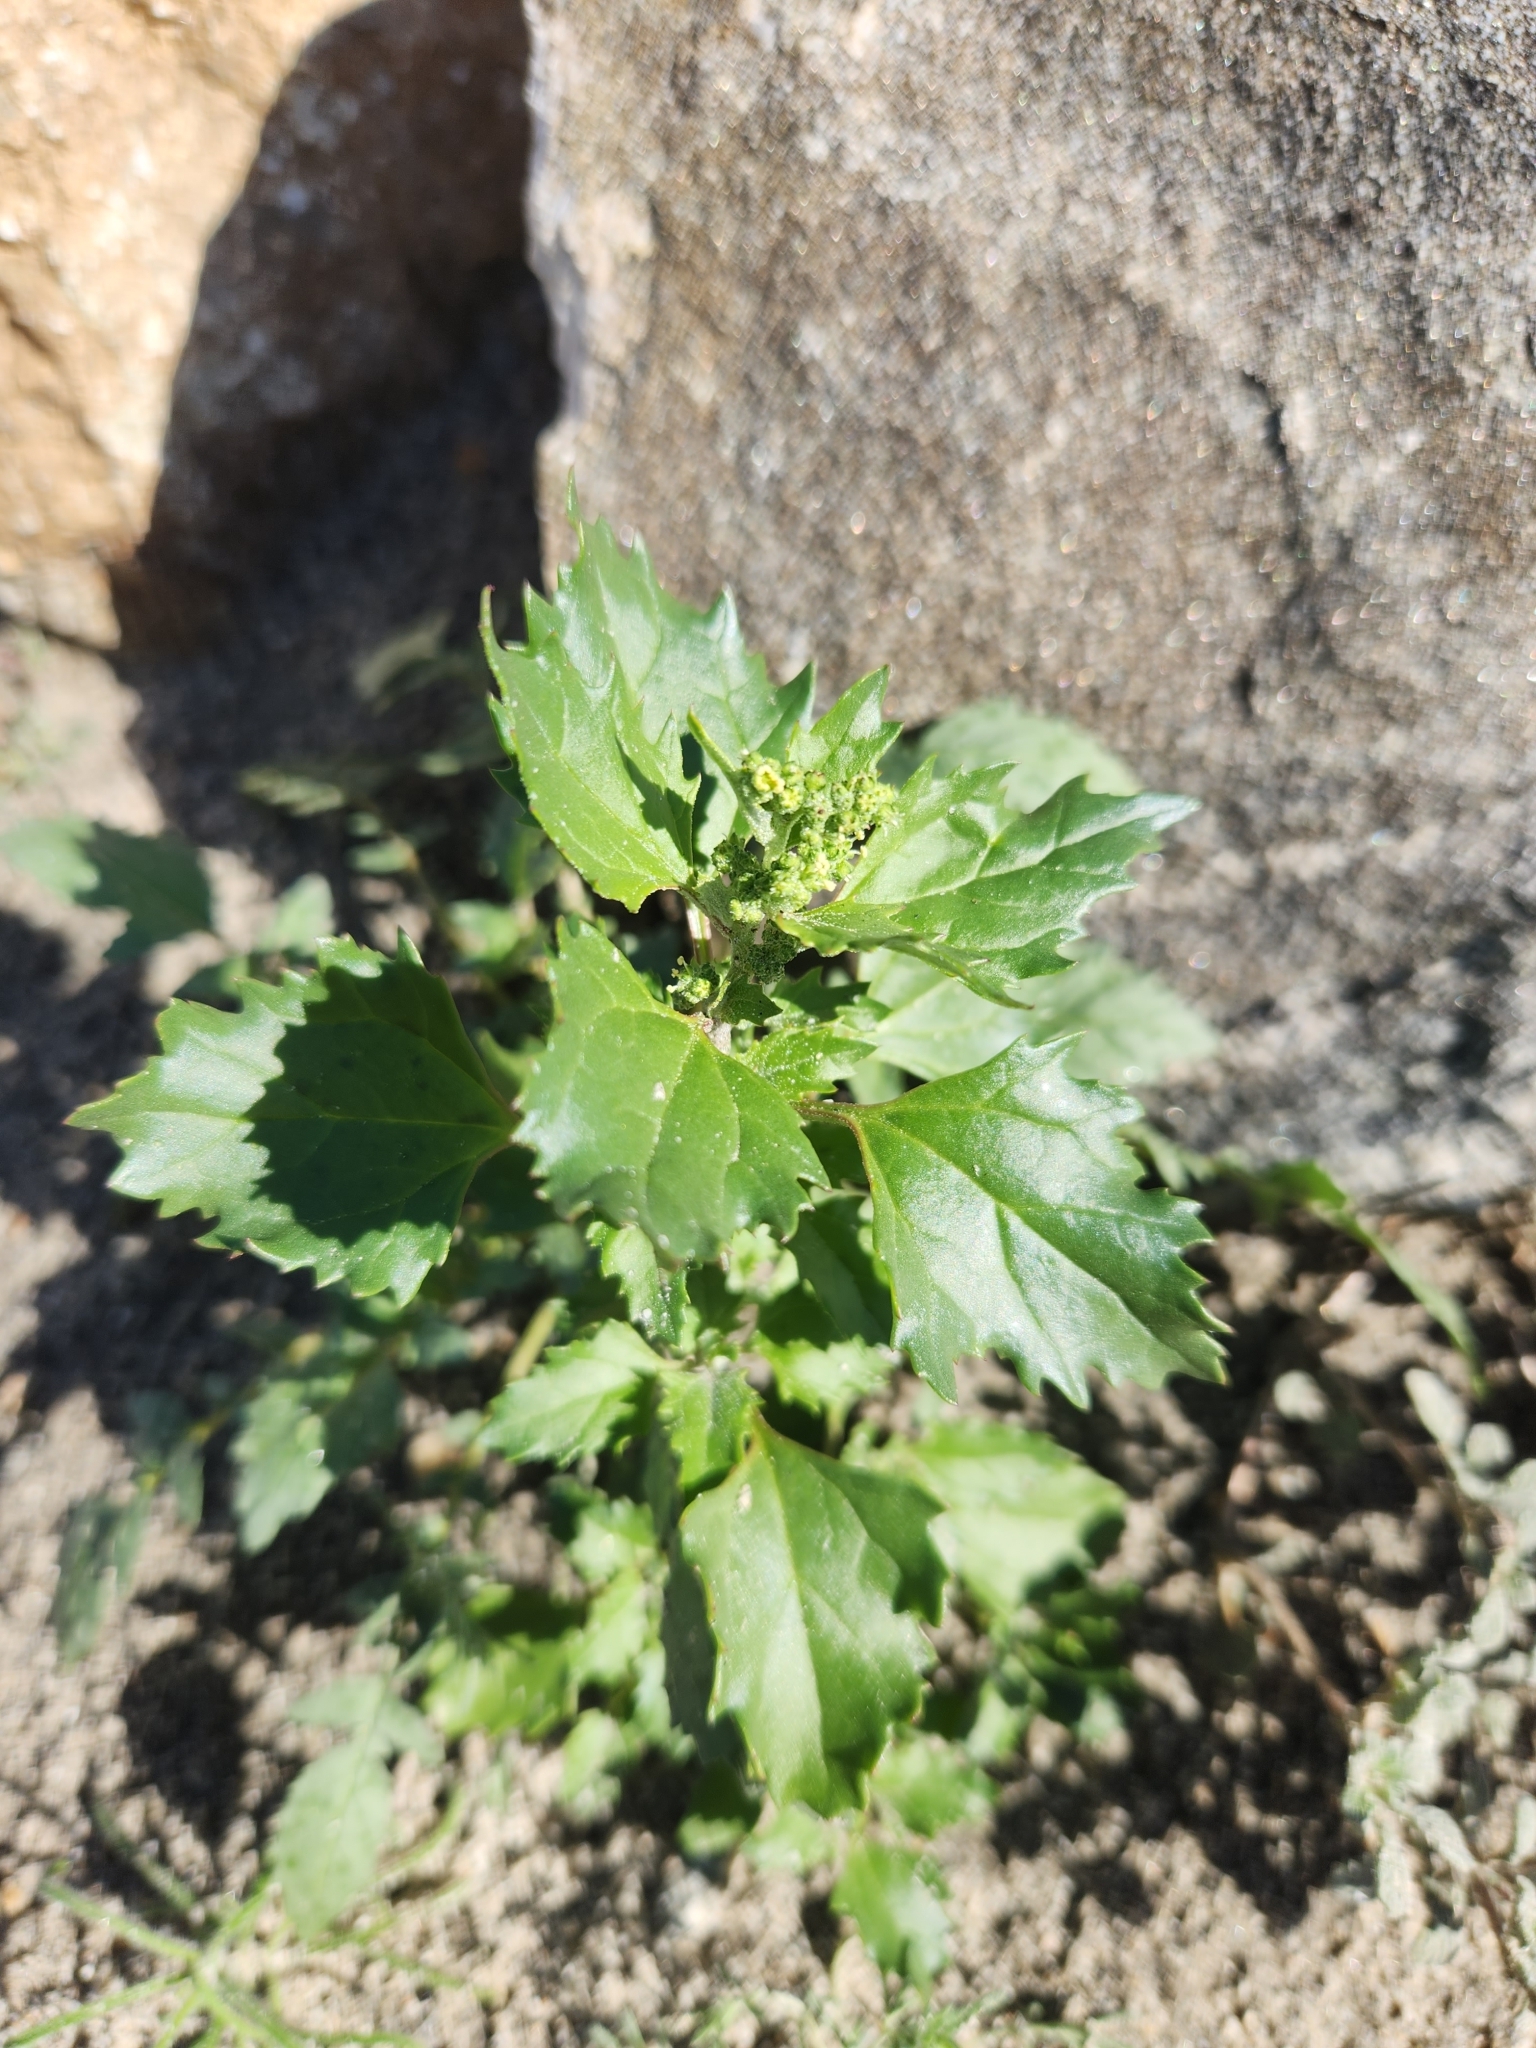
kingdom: Plantae
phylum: Tracheophyta
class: Magnoliopsida
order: Caryophyllales
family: Amaranthaceae
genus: Chenopodiastrum
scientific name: Chenopodiastrum murale
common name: Sowbane
